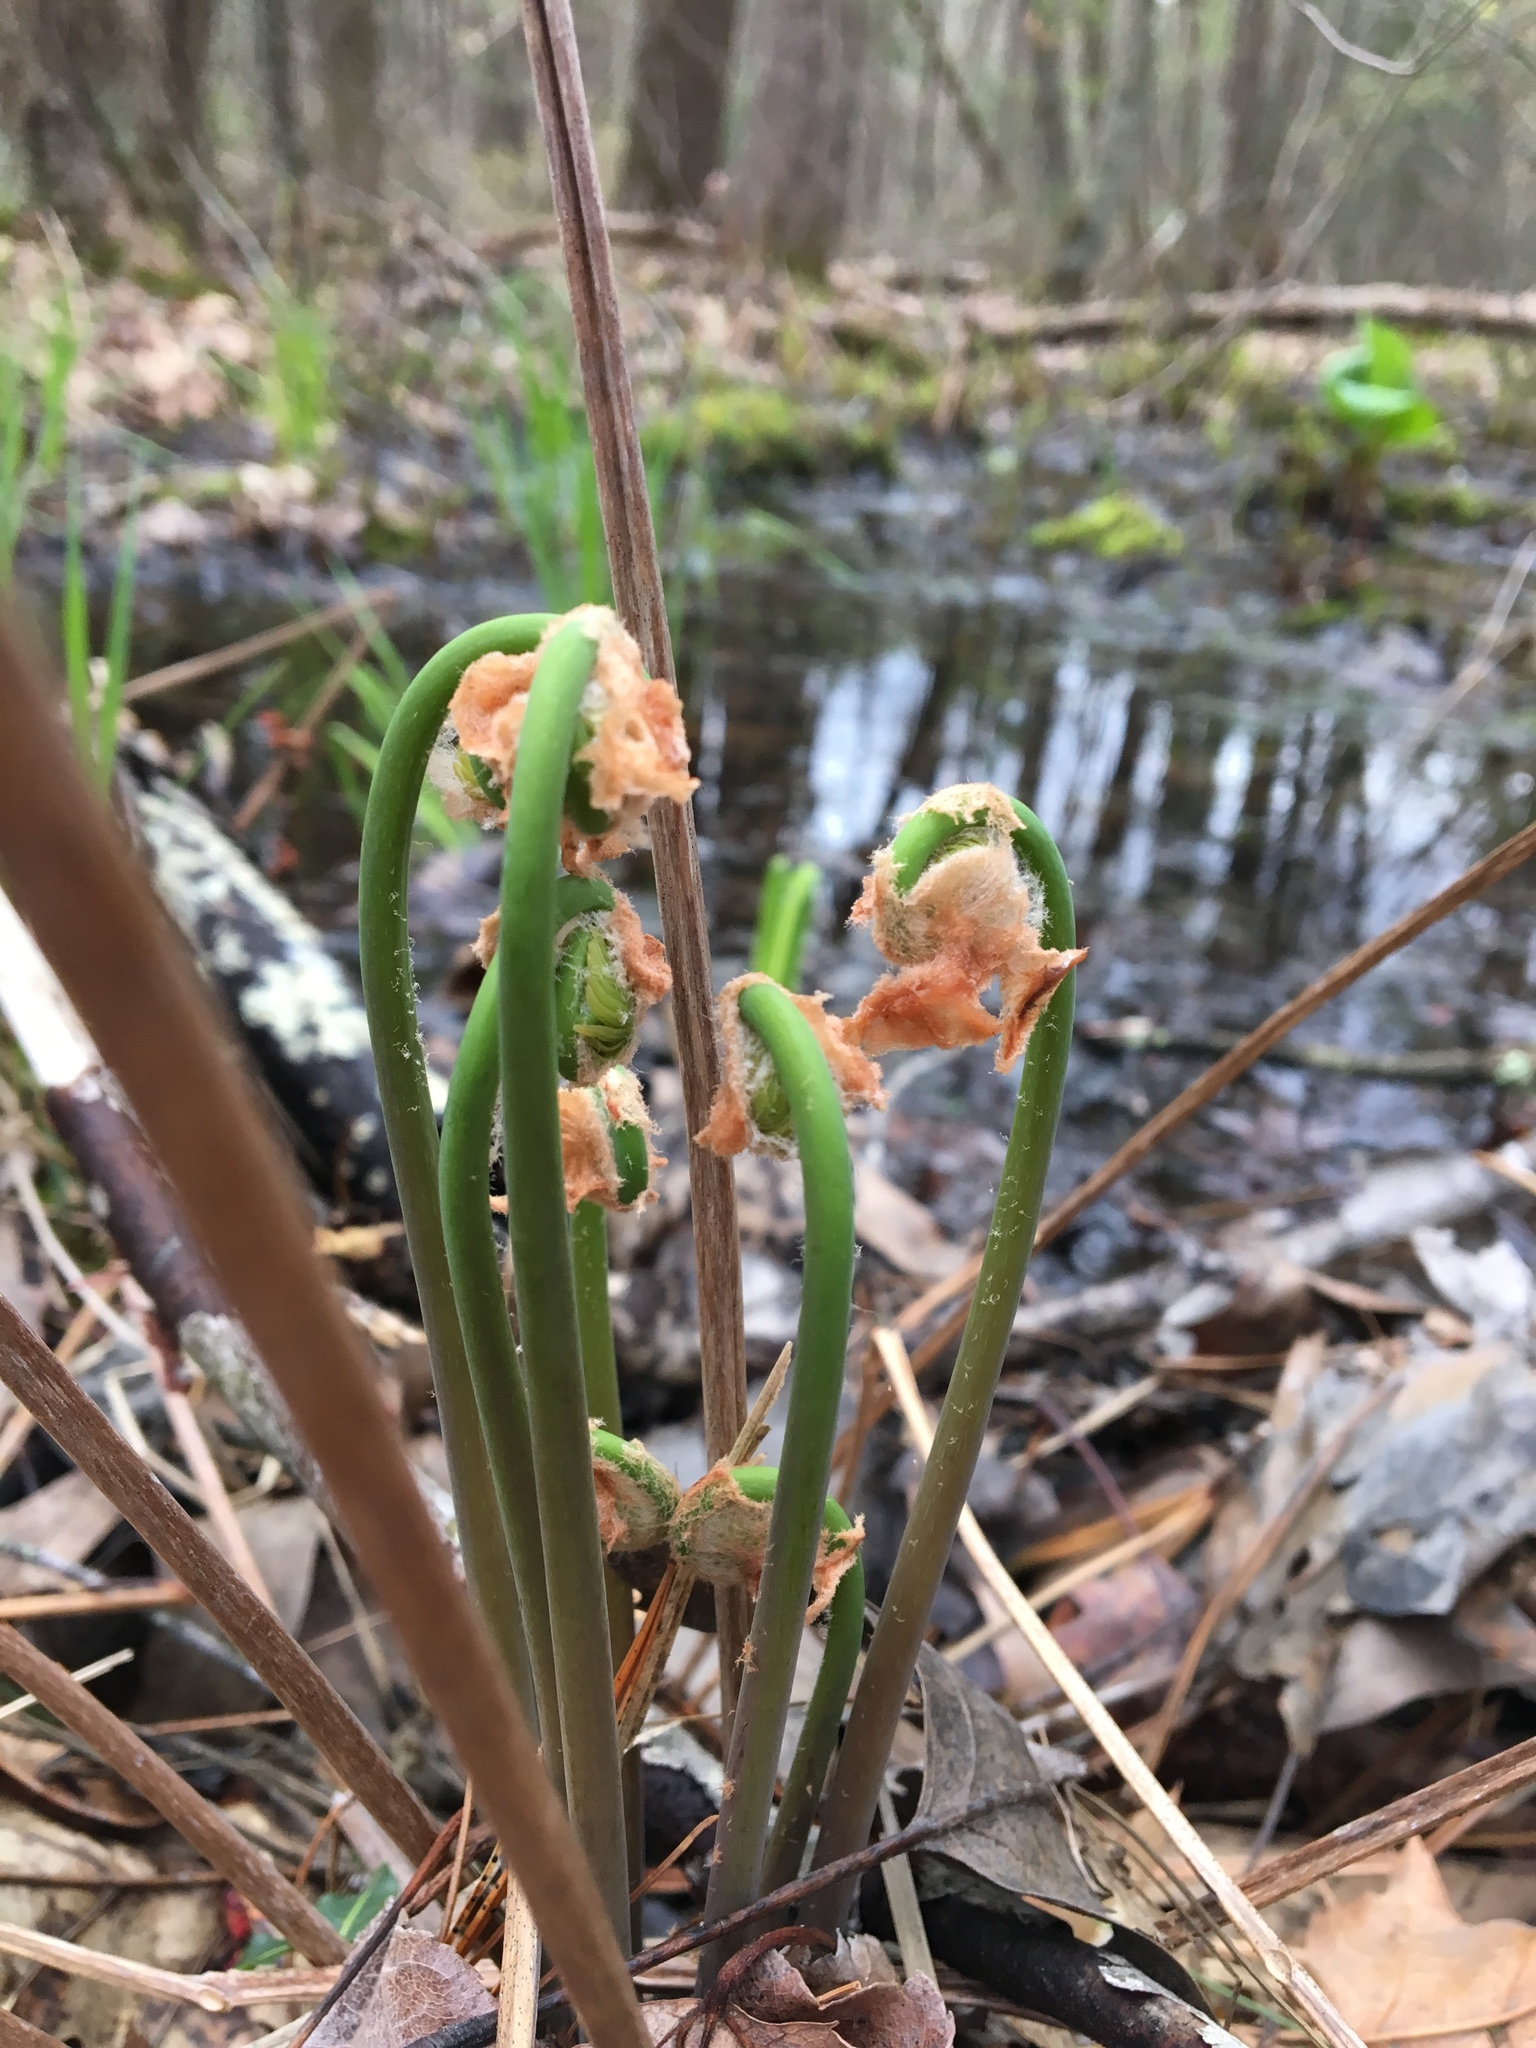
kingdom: Plantae
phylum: Tracheophyta
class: Polypodiopsida
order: Osmundales
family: Osmundaceae
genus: Osmunda
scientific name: Osmunda spectabilis
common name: American royal fern
